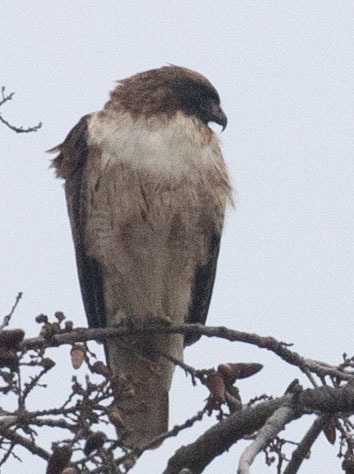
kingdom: Animalia
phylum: Chordata
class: Aves
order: Accipitriformes
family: Accipitridae
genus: Buteo
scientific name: Buteo jamaicensis
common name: Red-tailed hawk
